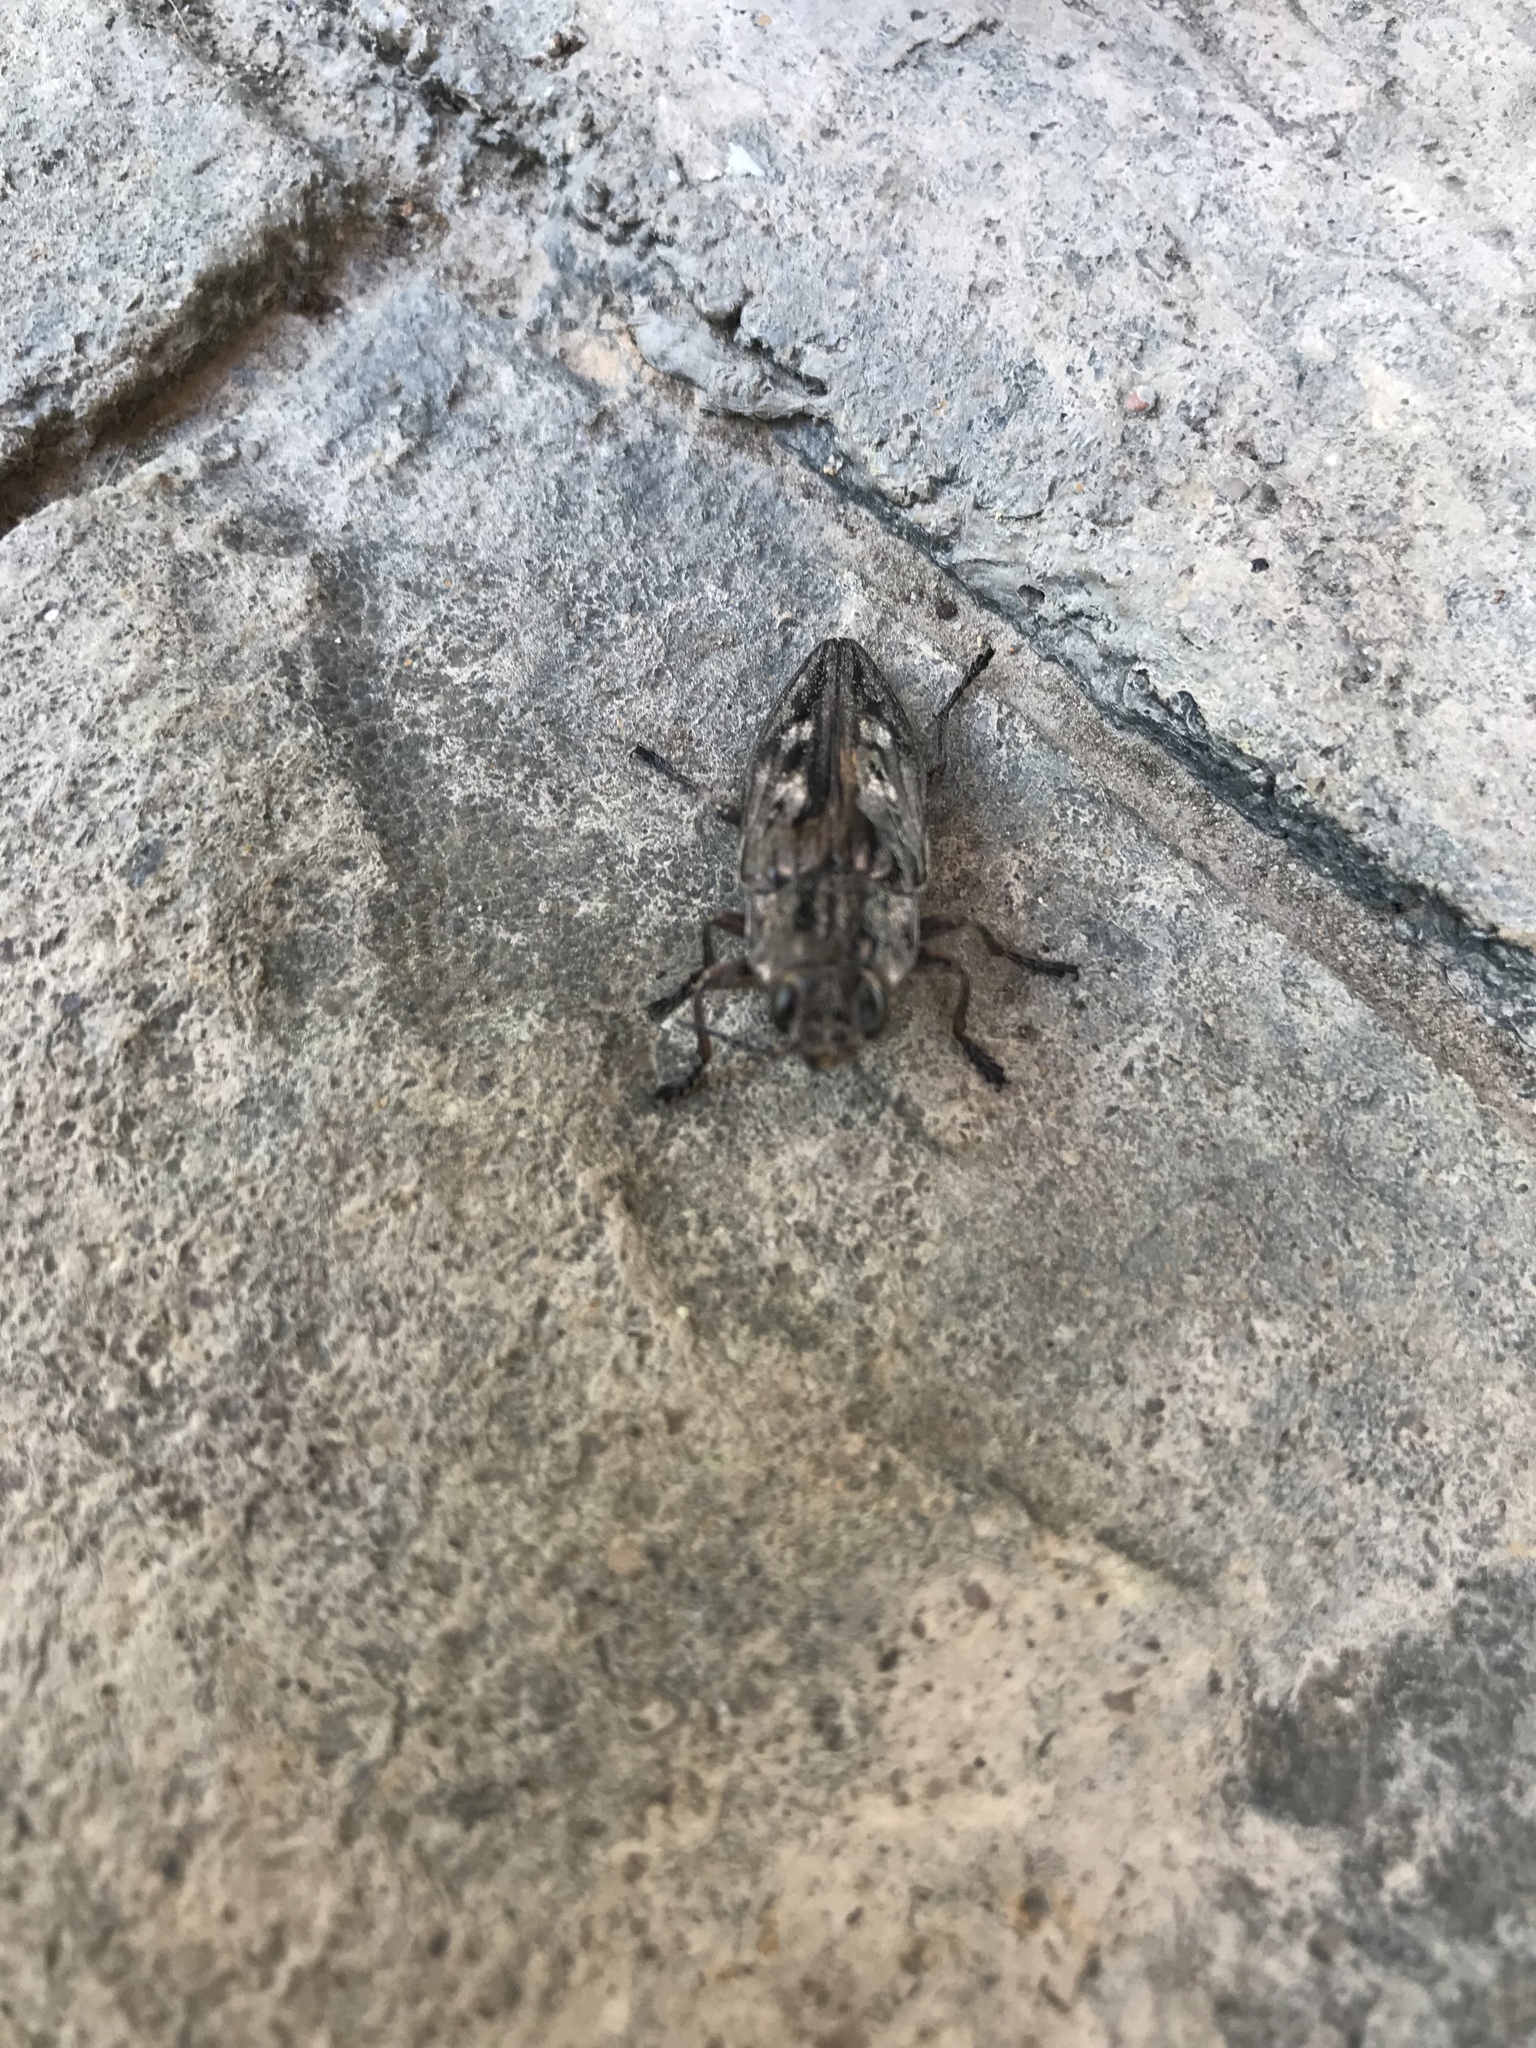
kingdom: Animalia
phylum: Arthropoda
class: Insecta
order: Coleoptera
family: Buprestidae
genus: Chalcophora
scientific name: Chalcophora virginiensis
